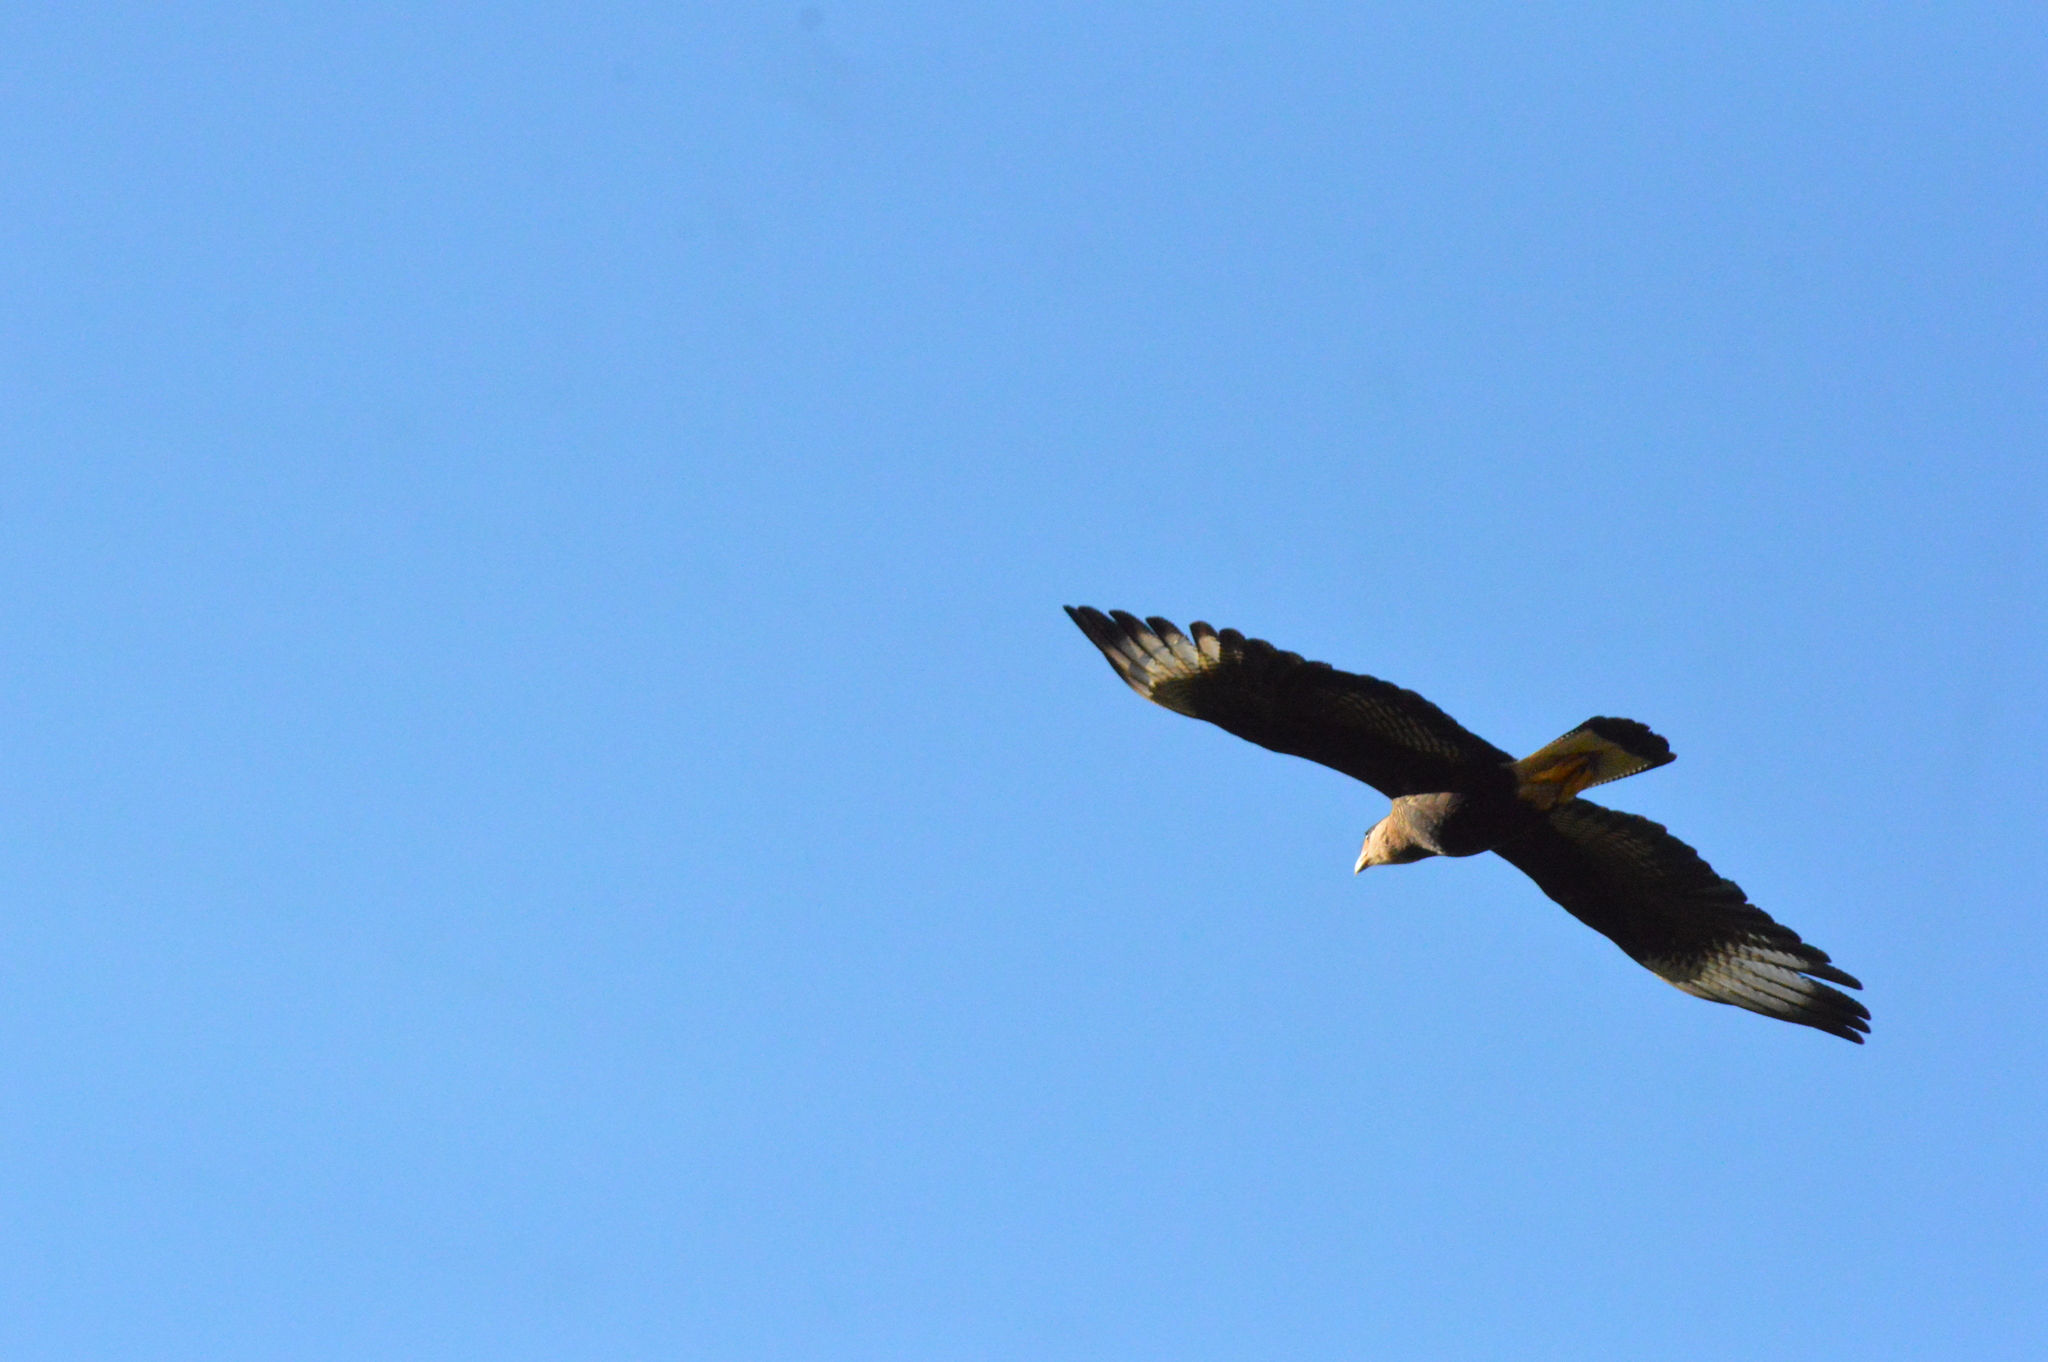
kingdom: Animalia
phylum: Chordata
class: Aves
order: Falconiformes
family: Falconidae
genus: Caracara
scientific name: Caracara plancus
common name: Southern caracara
